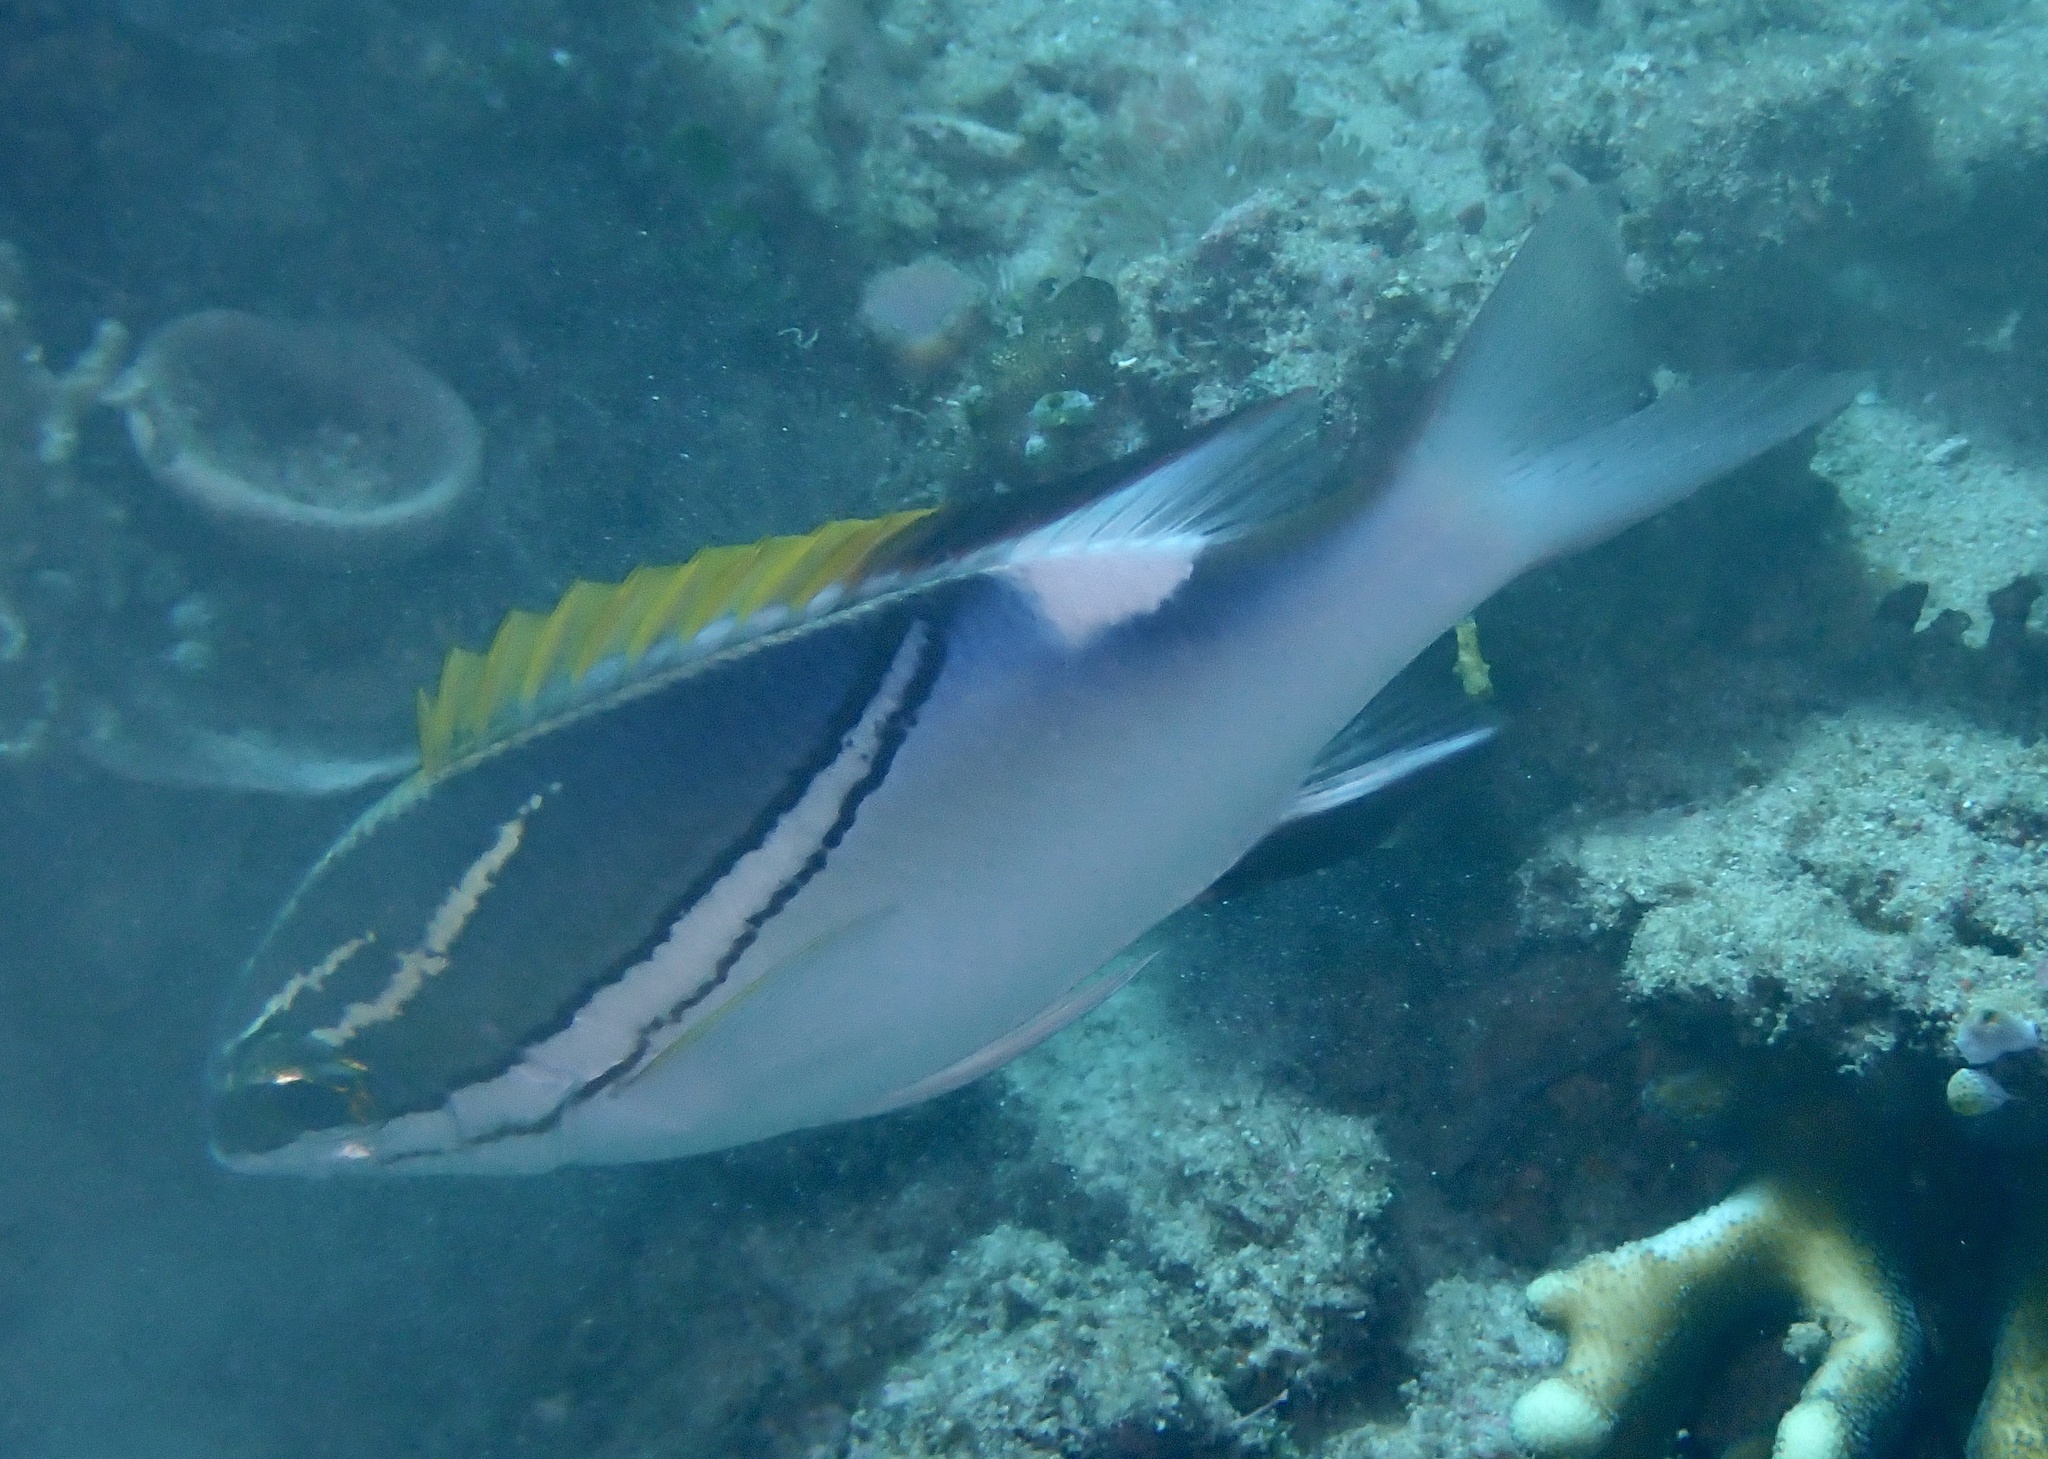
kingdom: Animalia
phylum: Chordata
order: Perciformes
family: Nemipteridae
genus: Scolopsis
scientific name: Scolopsis bilineata
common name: Two-lined monocle bream
